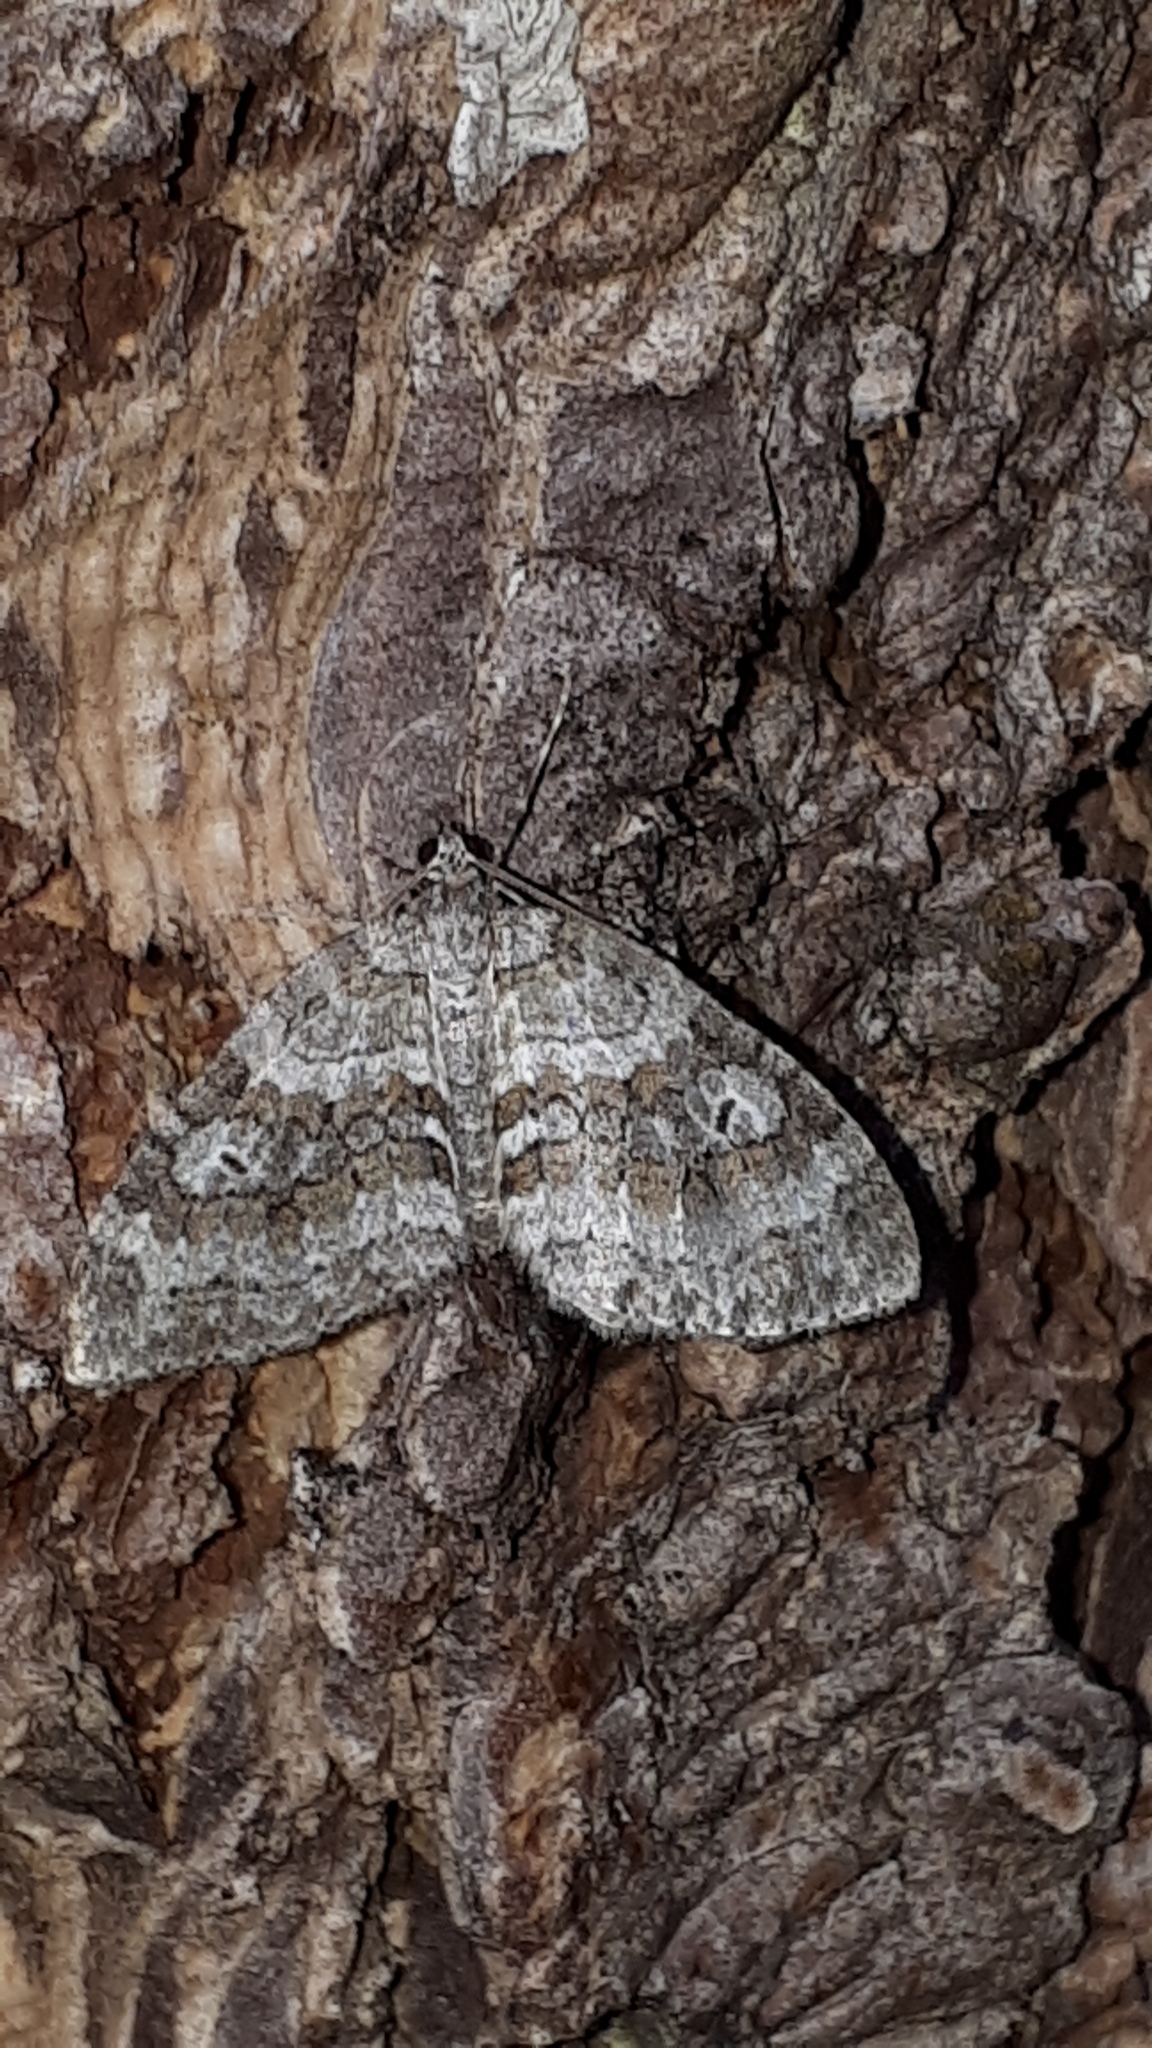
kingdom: Animalia
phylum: Arthropoda
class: Insecta
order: Lepidoptera
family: Geometridae
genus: Nothocasis
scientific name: Nothocasis sertata
